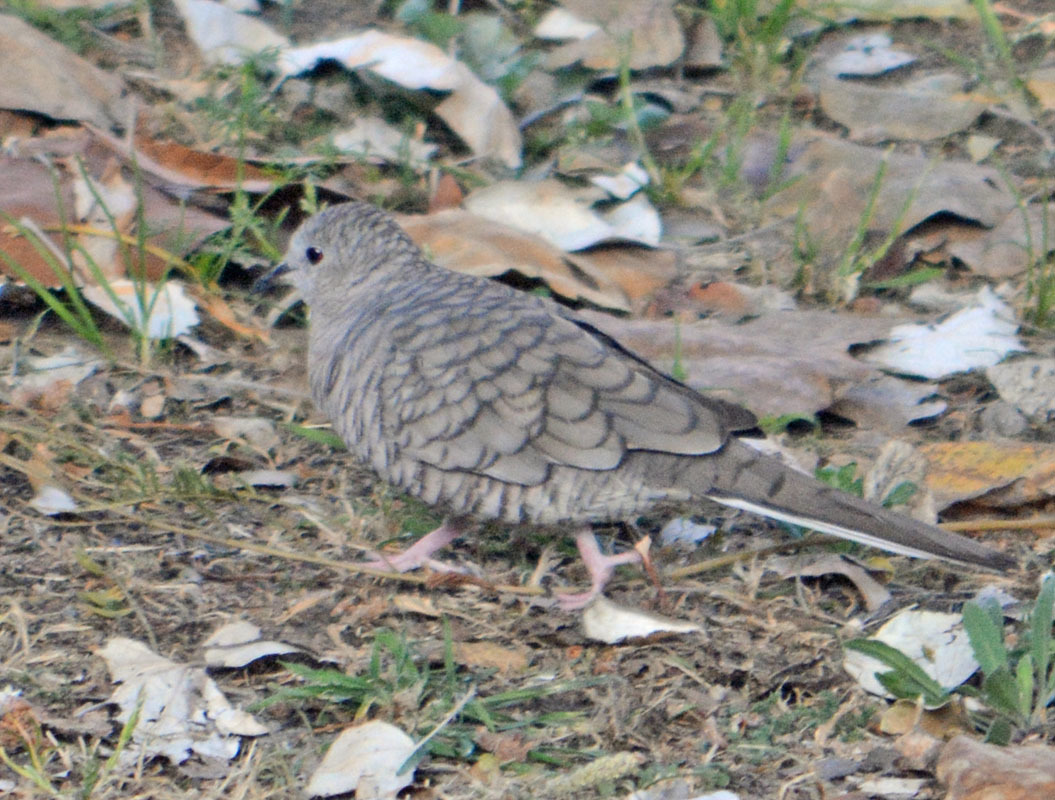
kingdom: Animalia
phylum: Chordata
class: Aves
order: Columbiformes
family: Columbidae
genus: Columbina
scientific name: Columbina inca
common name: Inca dove
